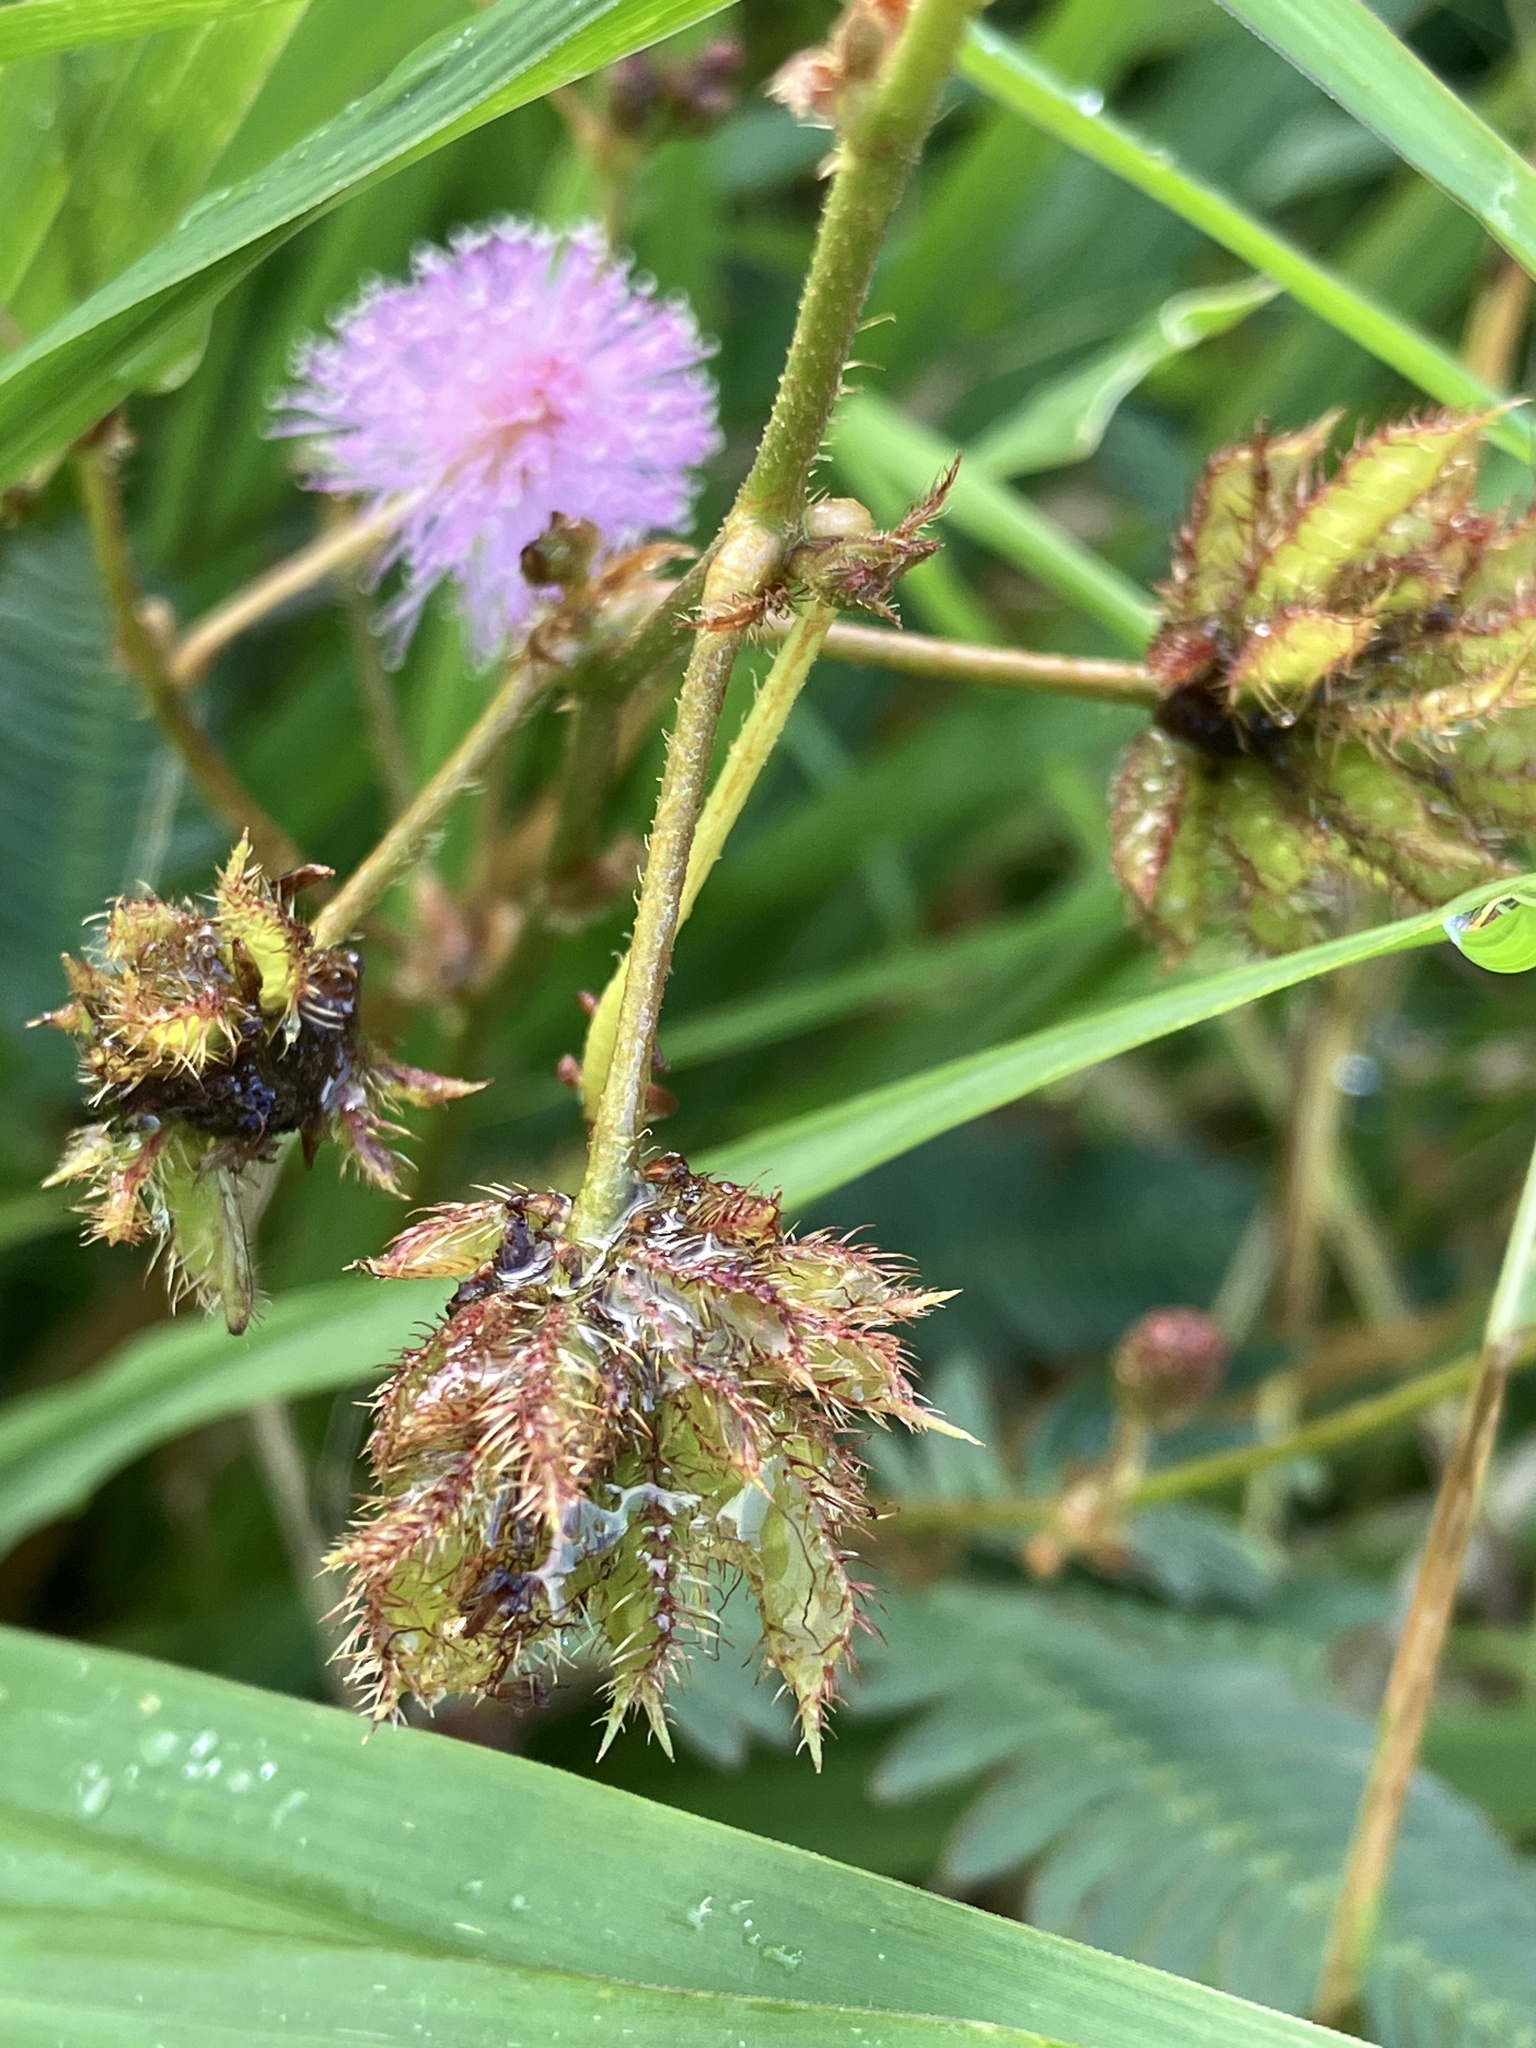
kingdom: Plantae
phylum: Tracheophyta
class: Magnoliopsida
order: Fabales
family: Fabaceae
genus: Mimosa
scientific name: Mimosa pudica
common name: Sensitive plant
